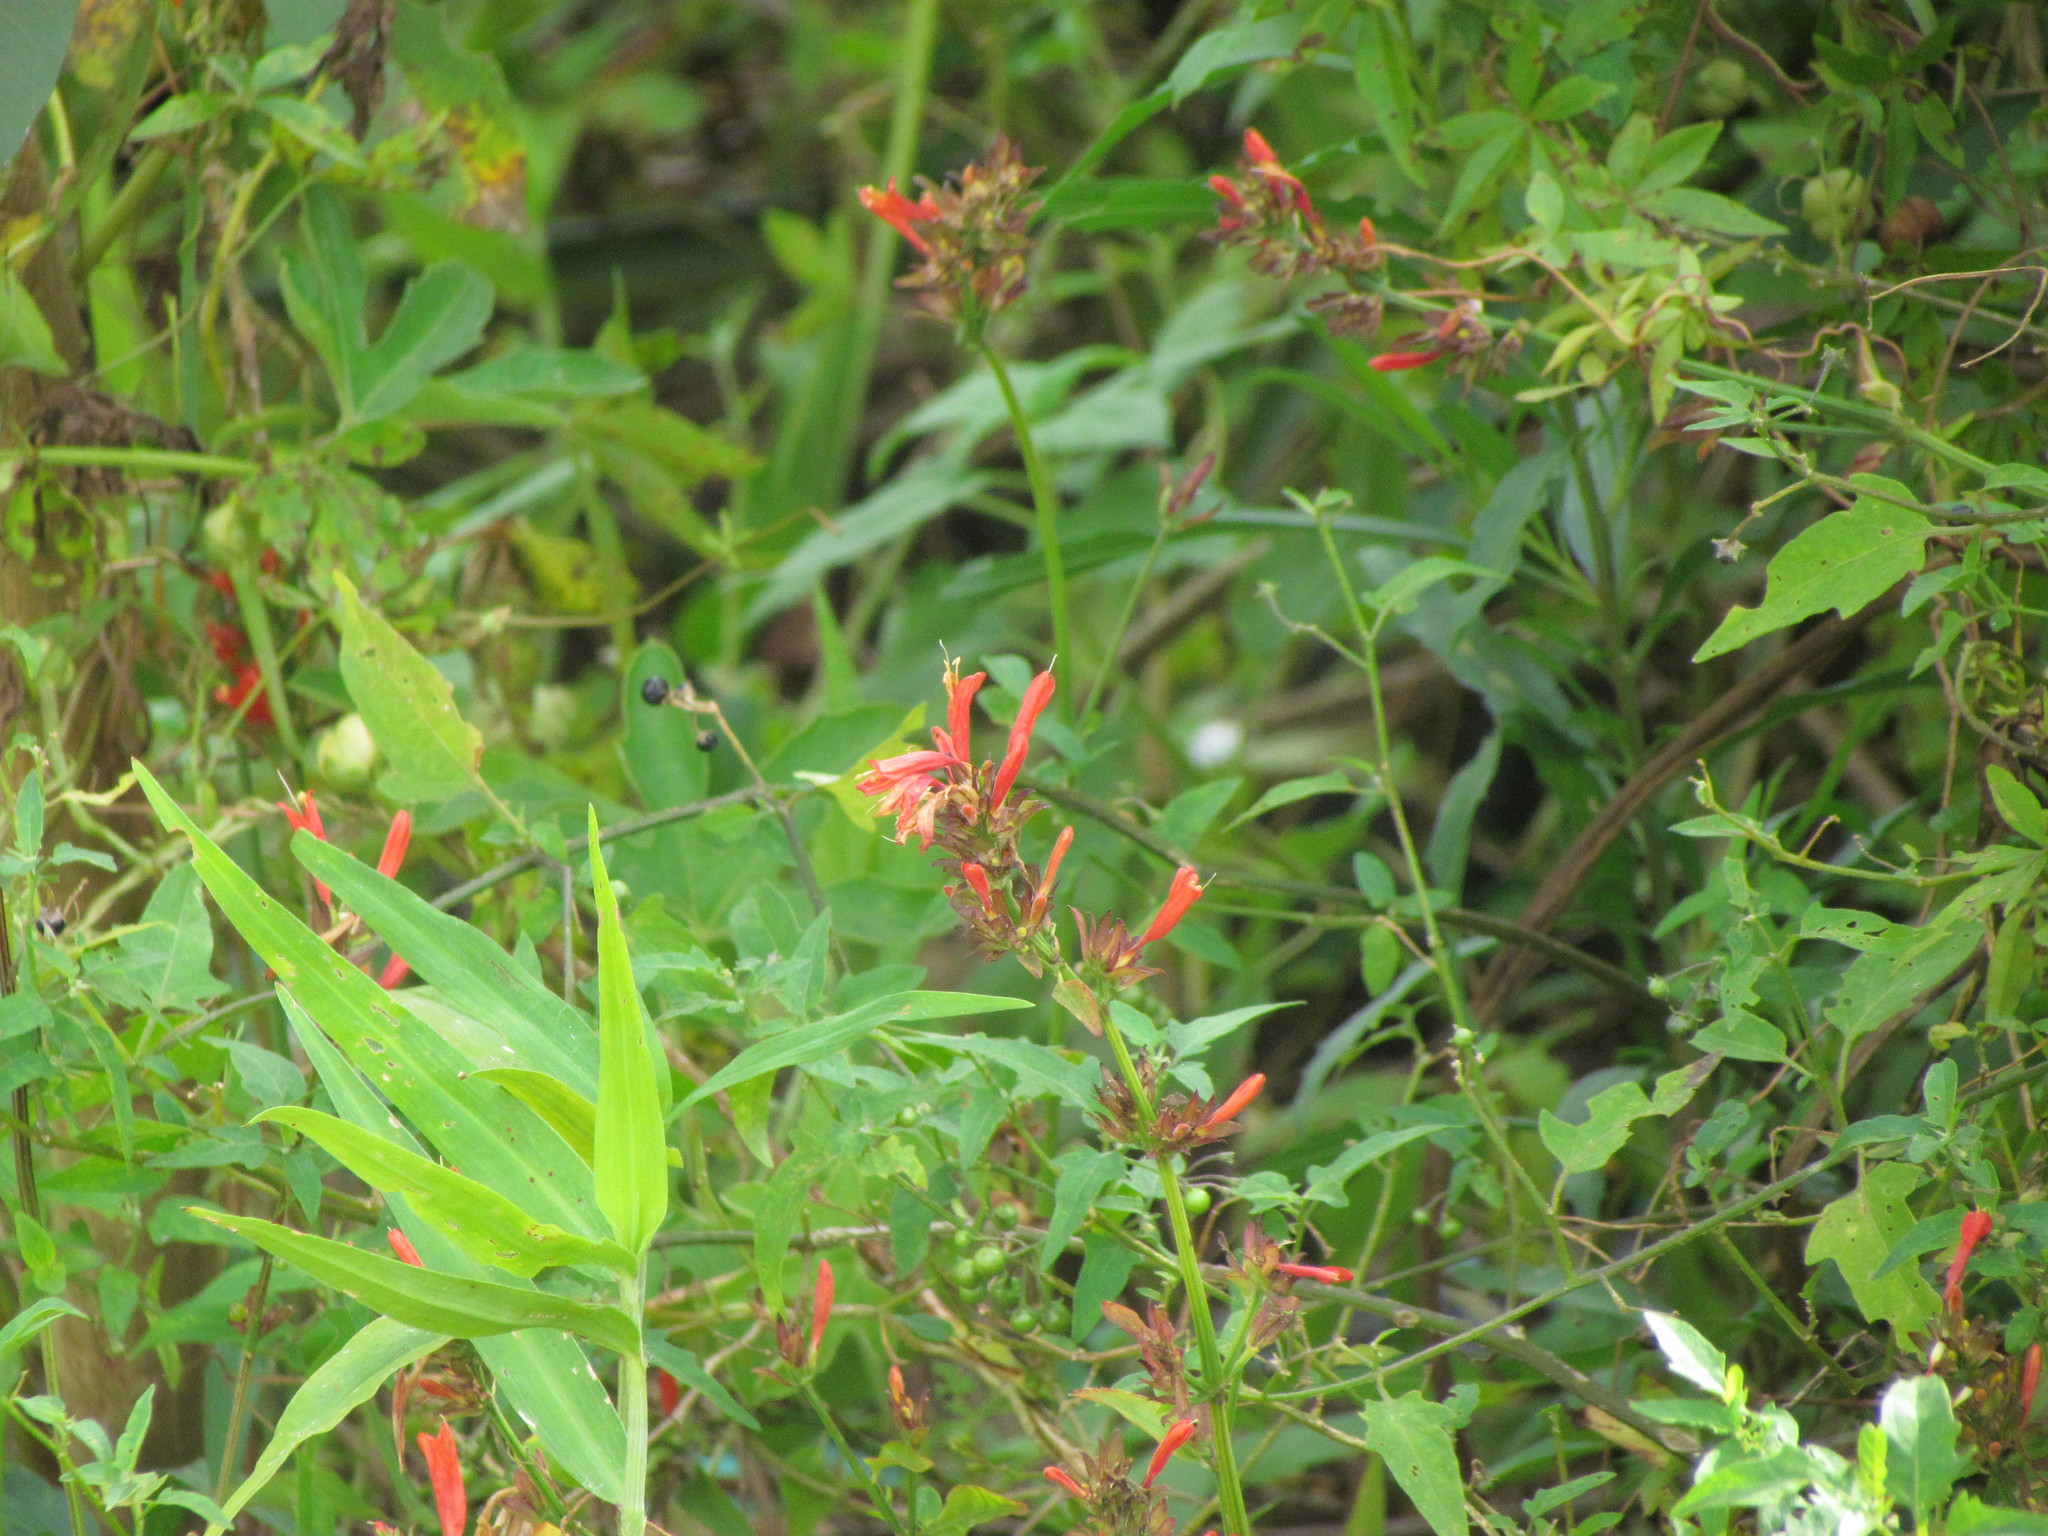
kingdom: Plantae
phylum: Tracheophyta
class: Magnoliopsida
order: Lamiales
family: Acanthaceae
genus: Dicliptera
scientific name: Dicliptera squarrosa
